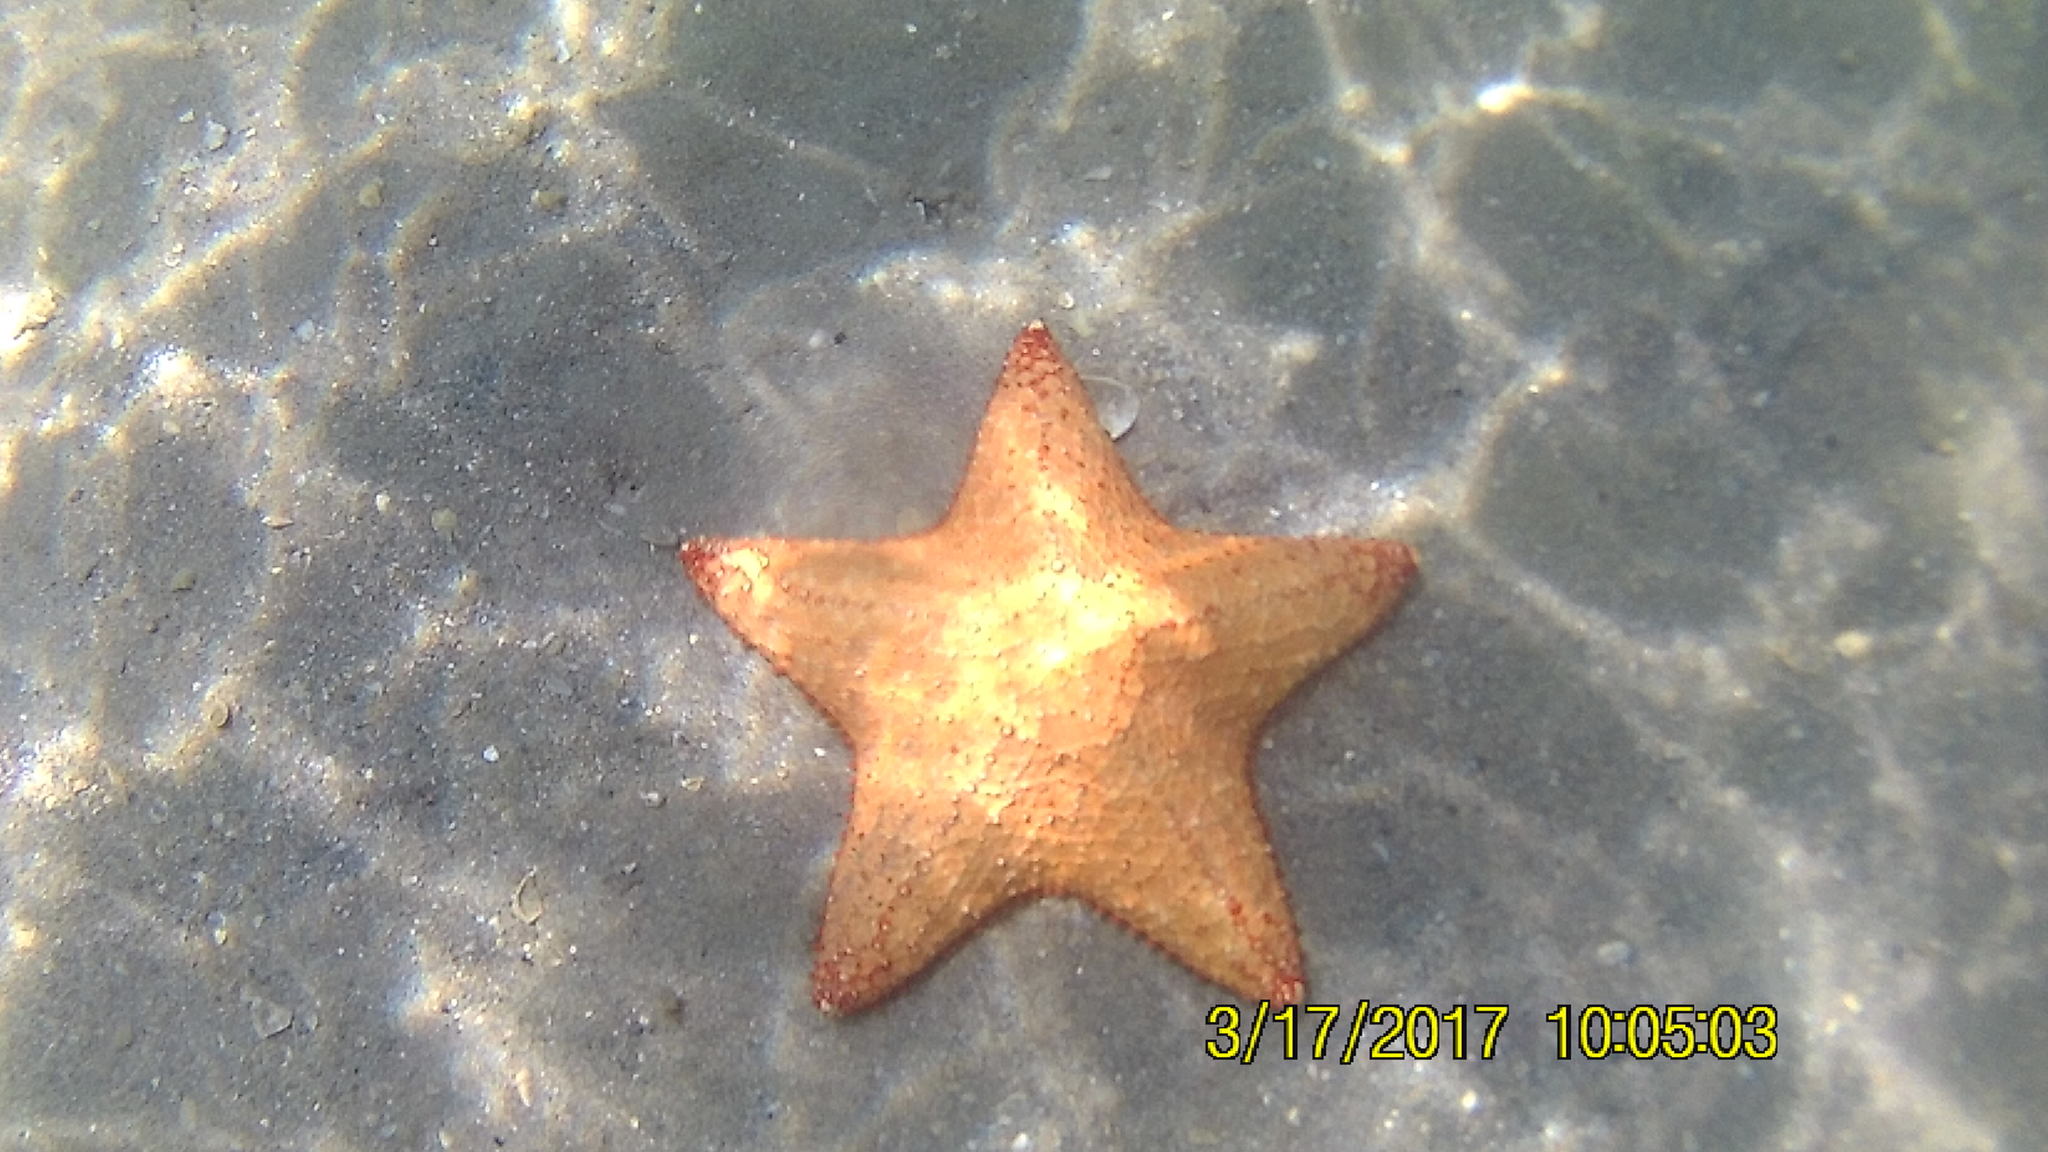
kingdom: Animalia
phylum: Echinodermata
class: Asteroidea
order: Valvatida
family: Oreasteridae
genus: Oreaster
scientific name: Oreaster reticulatus
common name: Cushion sea star
